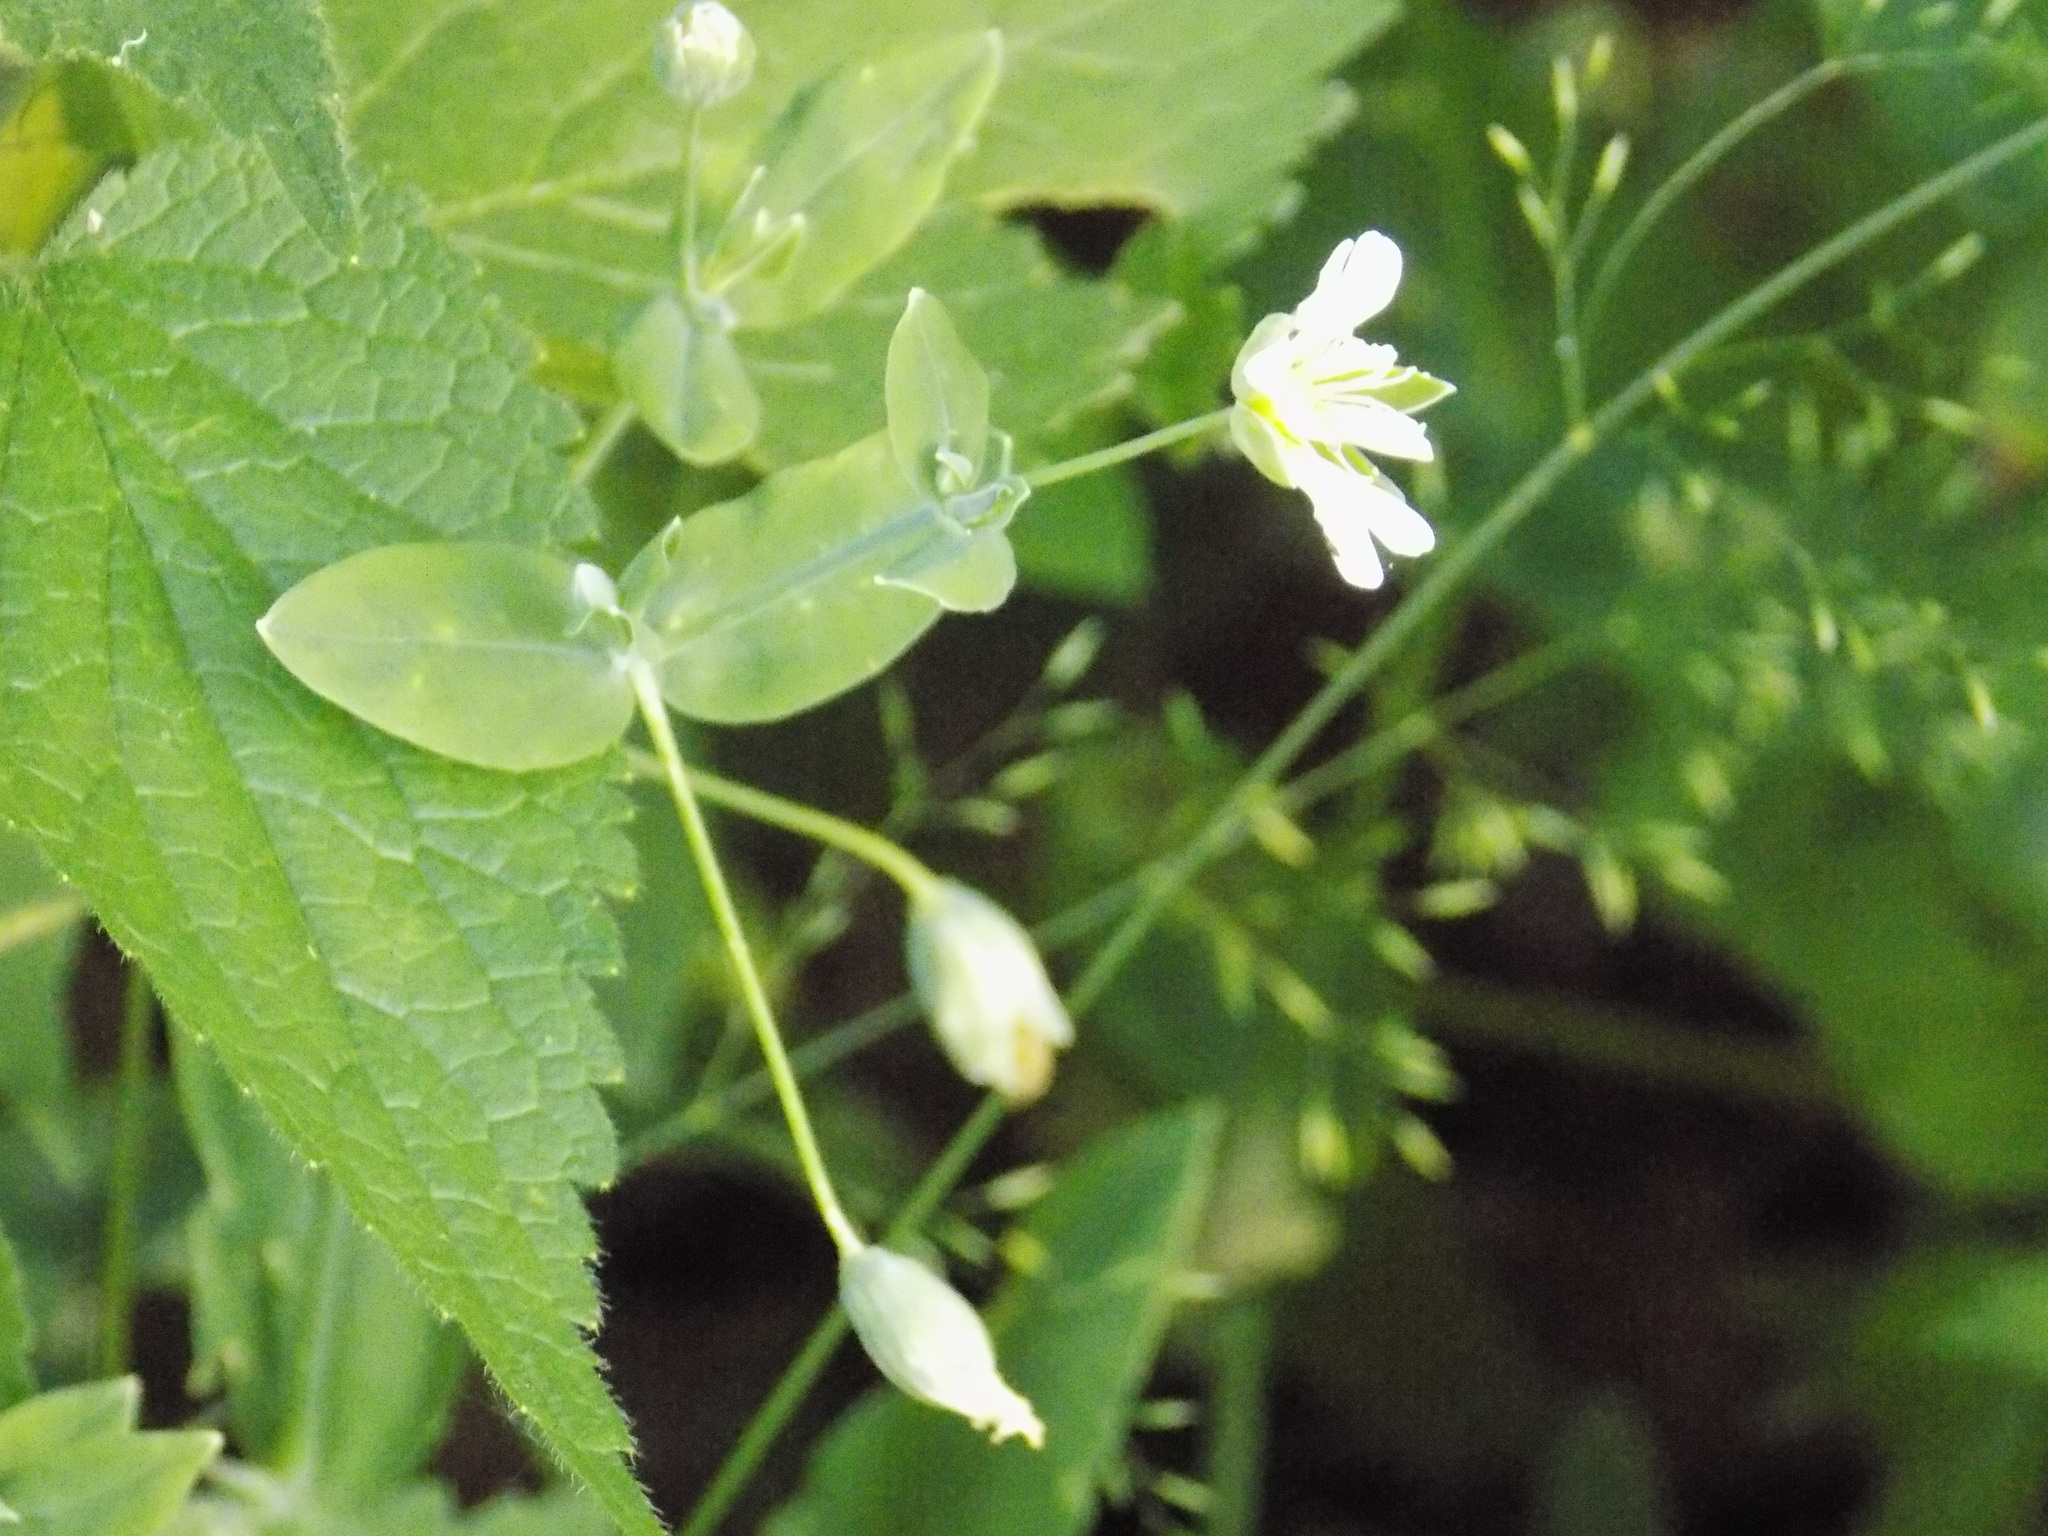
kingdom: Plantae
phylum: Tracheophyta
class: Magnoliopsida
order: Caryophyllales
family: Caryophyllaceae
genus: Cerastium
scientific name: Cerastium davuricum
